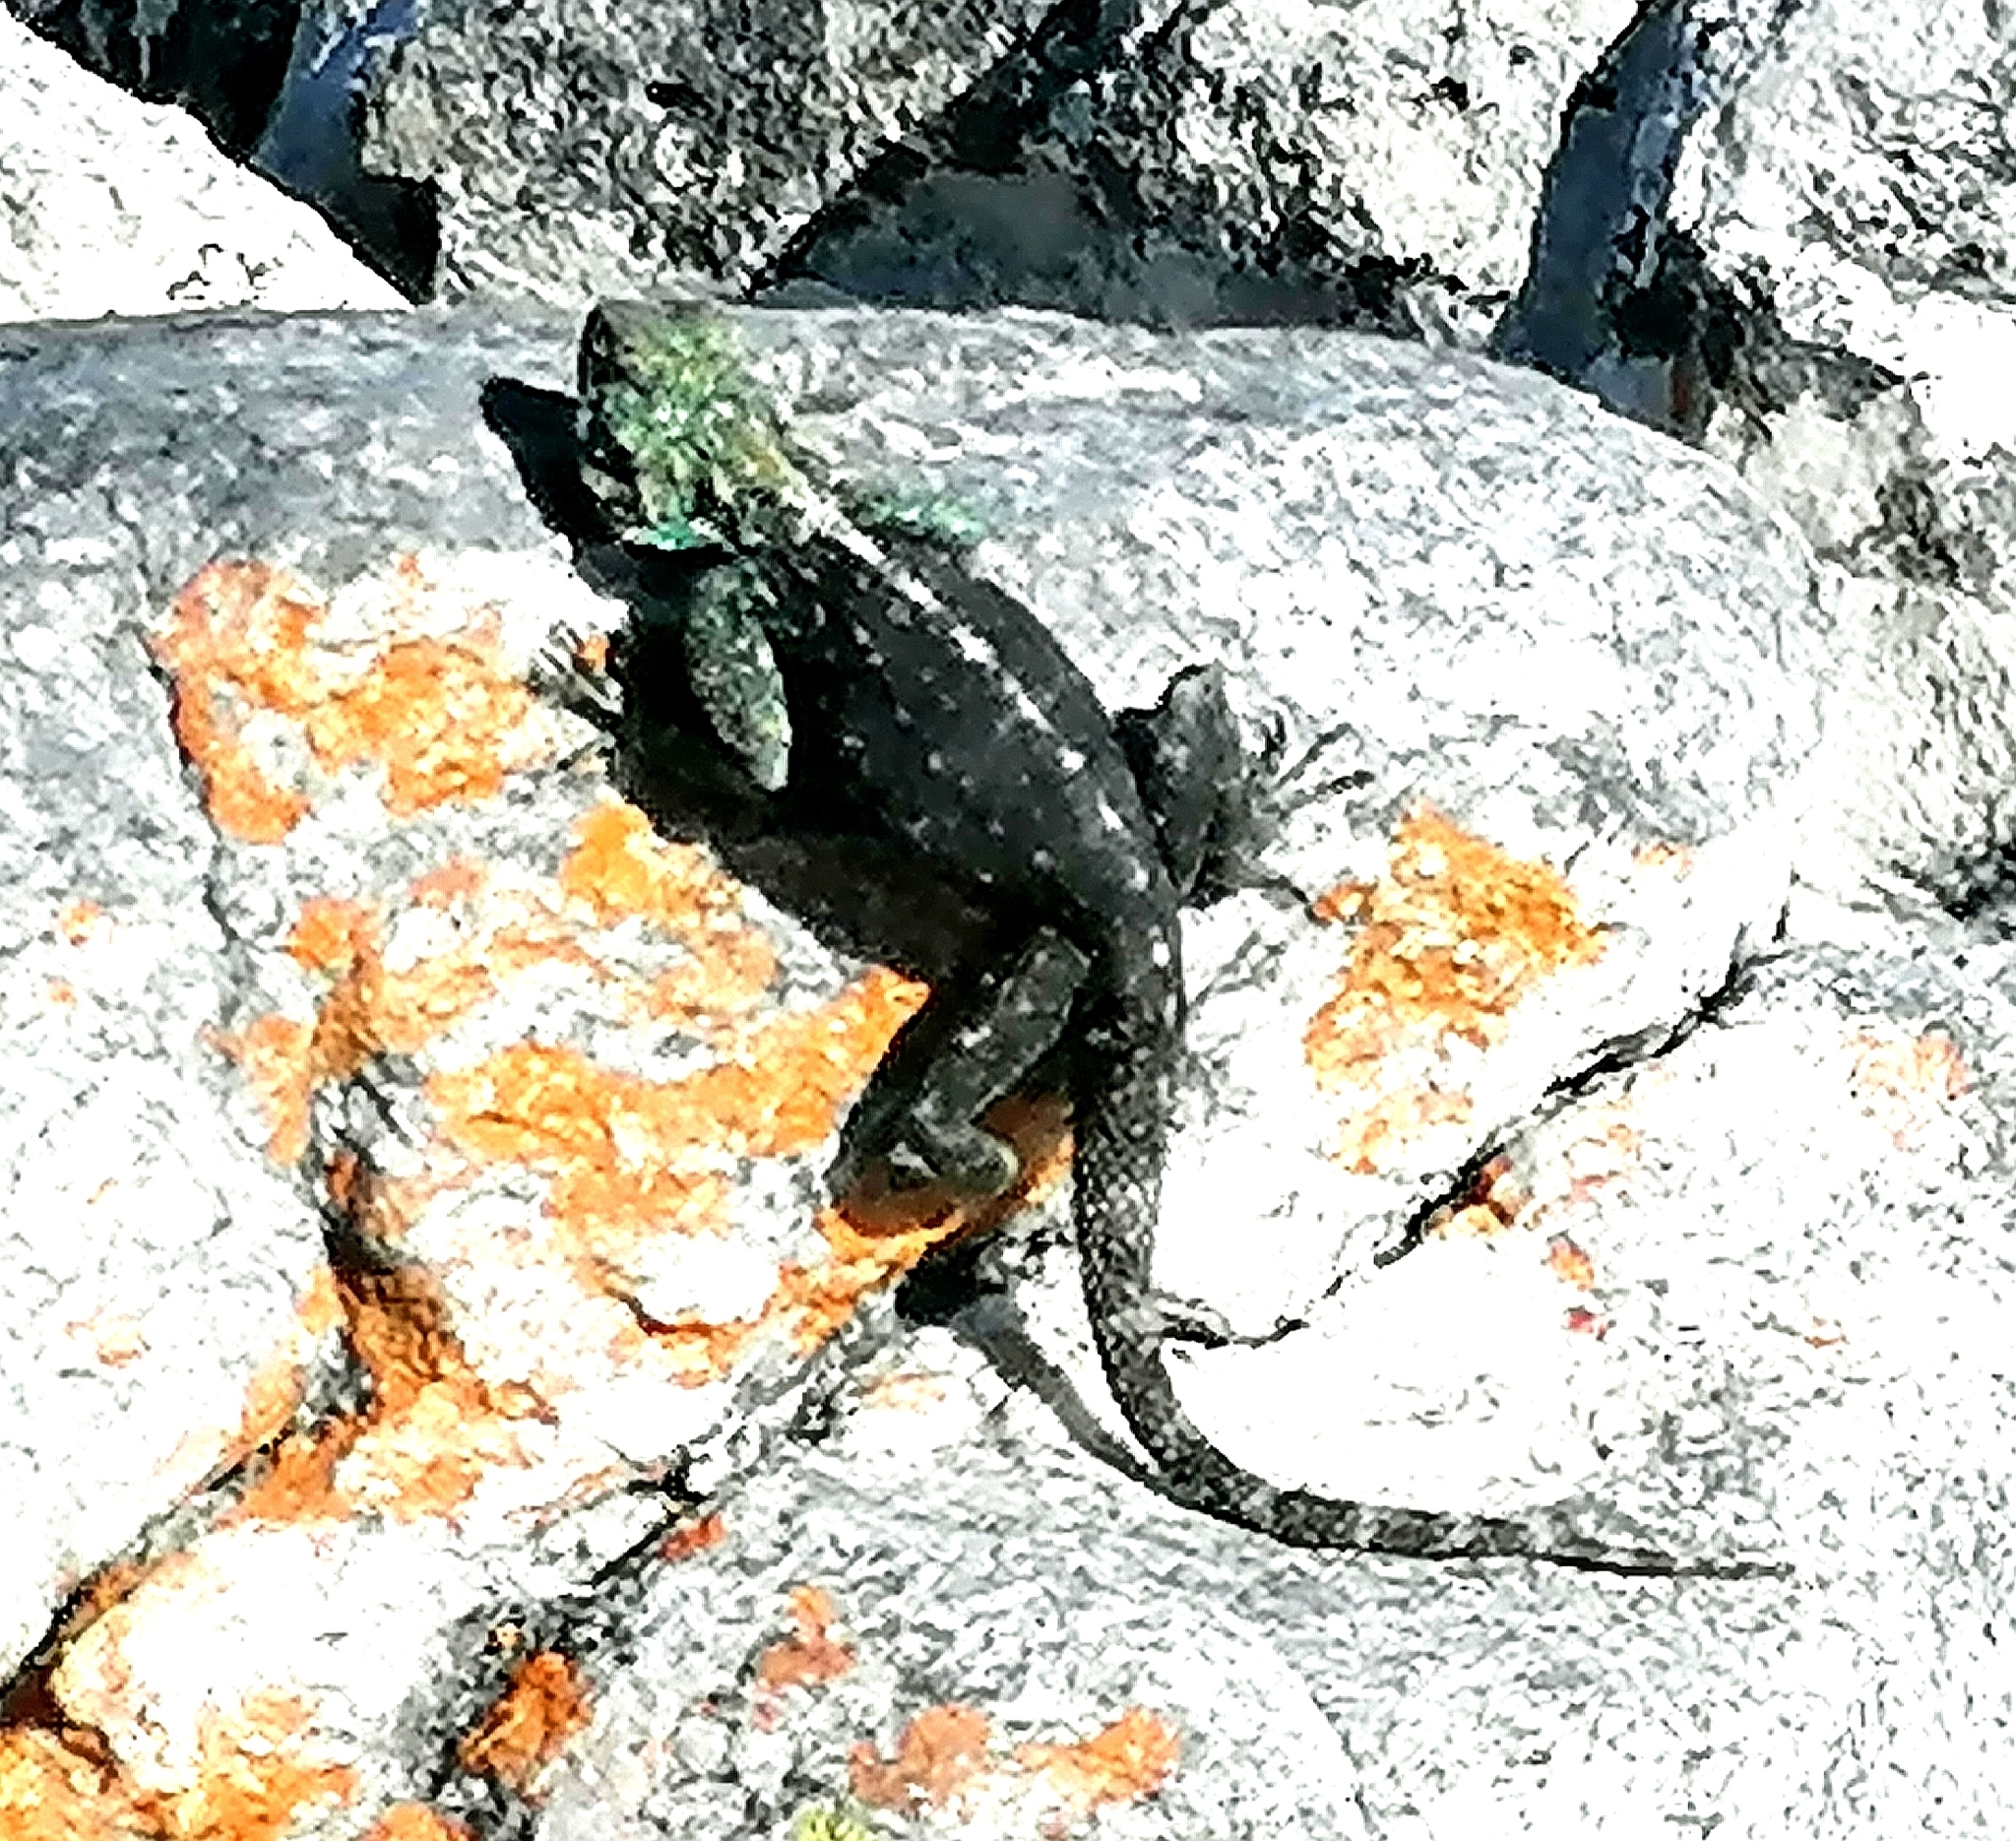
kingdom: Animalia
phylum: Chordata
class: Squamata
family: Agamidae
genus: Agama
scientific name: Agama atra
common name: Southern african rock agama
